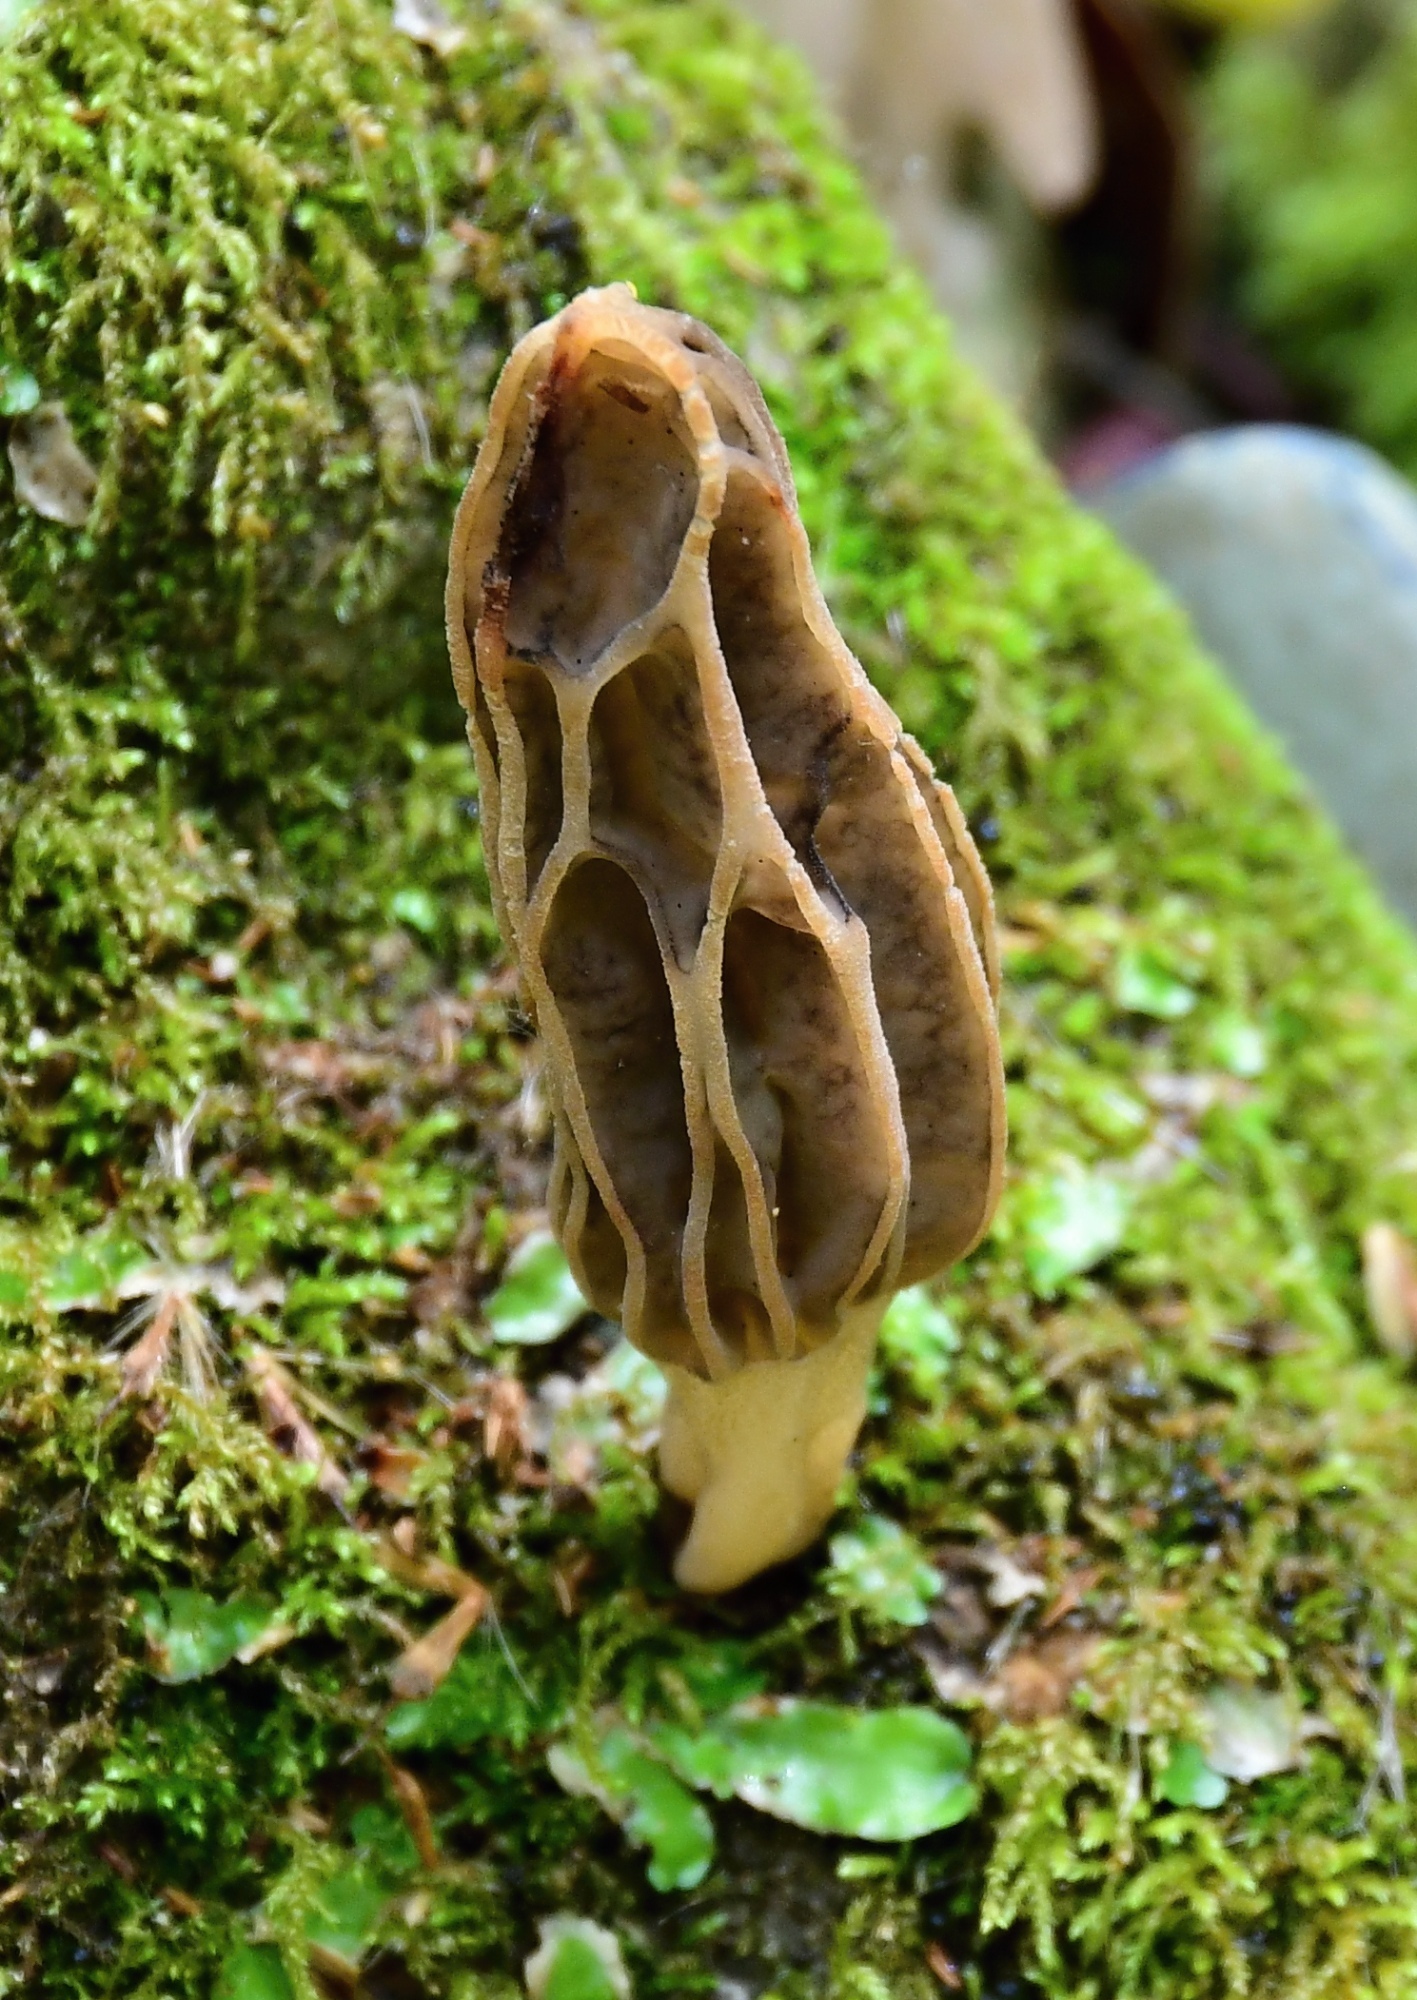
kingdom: Fungi
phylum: Ascomycota
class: Pezizomycetes
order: Pezizales
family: Morchellaceae
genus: Morchella
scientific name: Morchella anatolica
